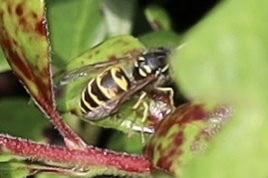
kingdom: Animalia
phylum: Arthropoda
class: Insecta
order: Hymenoptera
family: Vespidae
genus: Vespula
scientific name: Vespula alascensis
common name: Alaska yellowjacket
